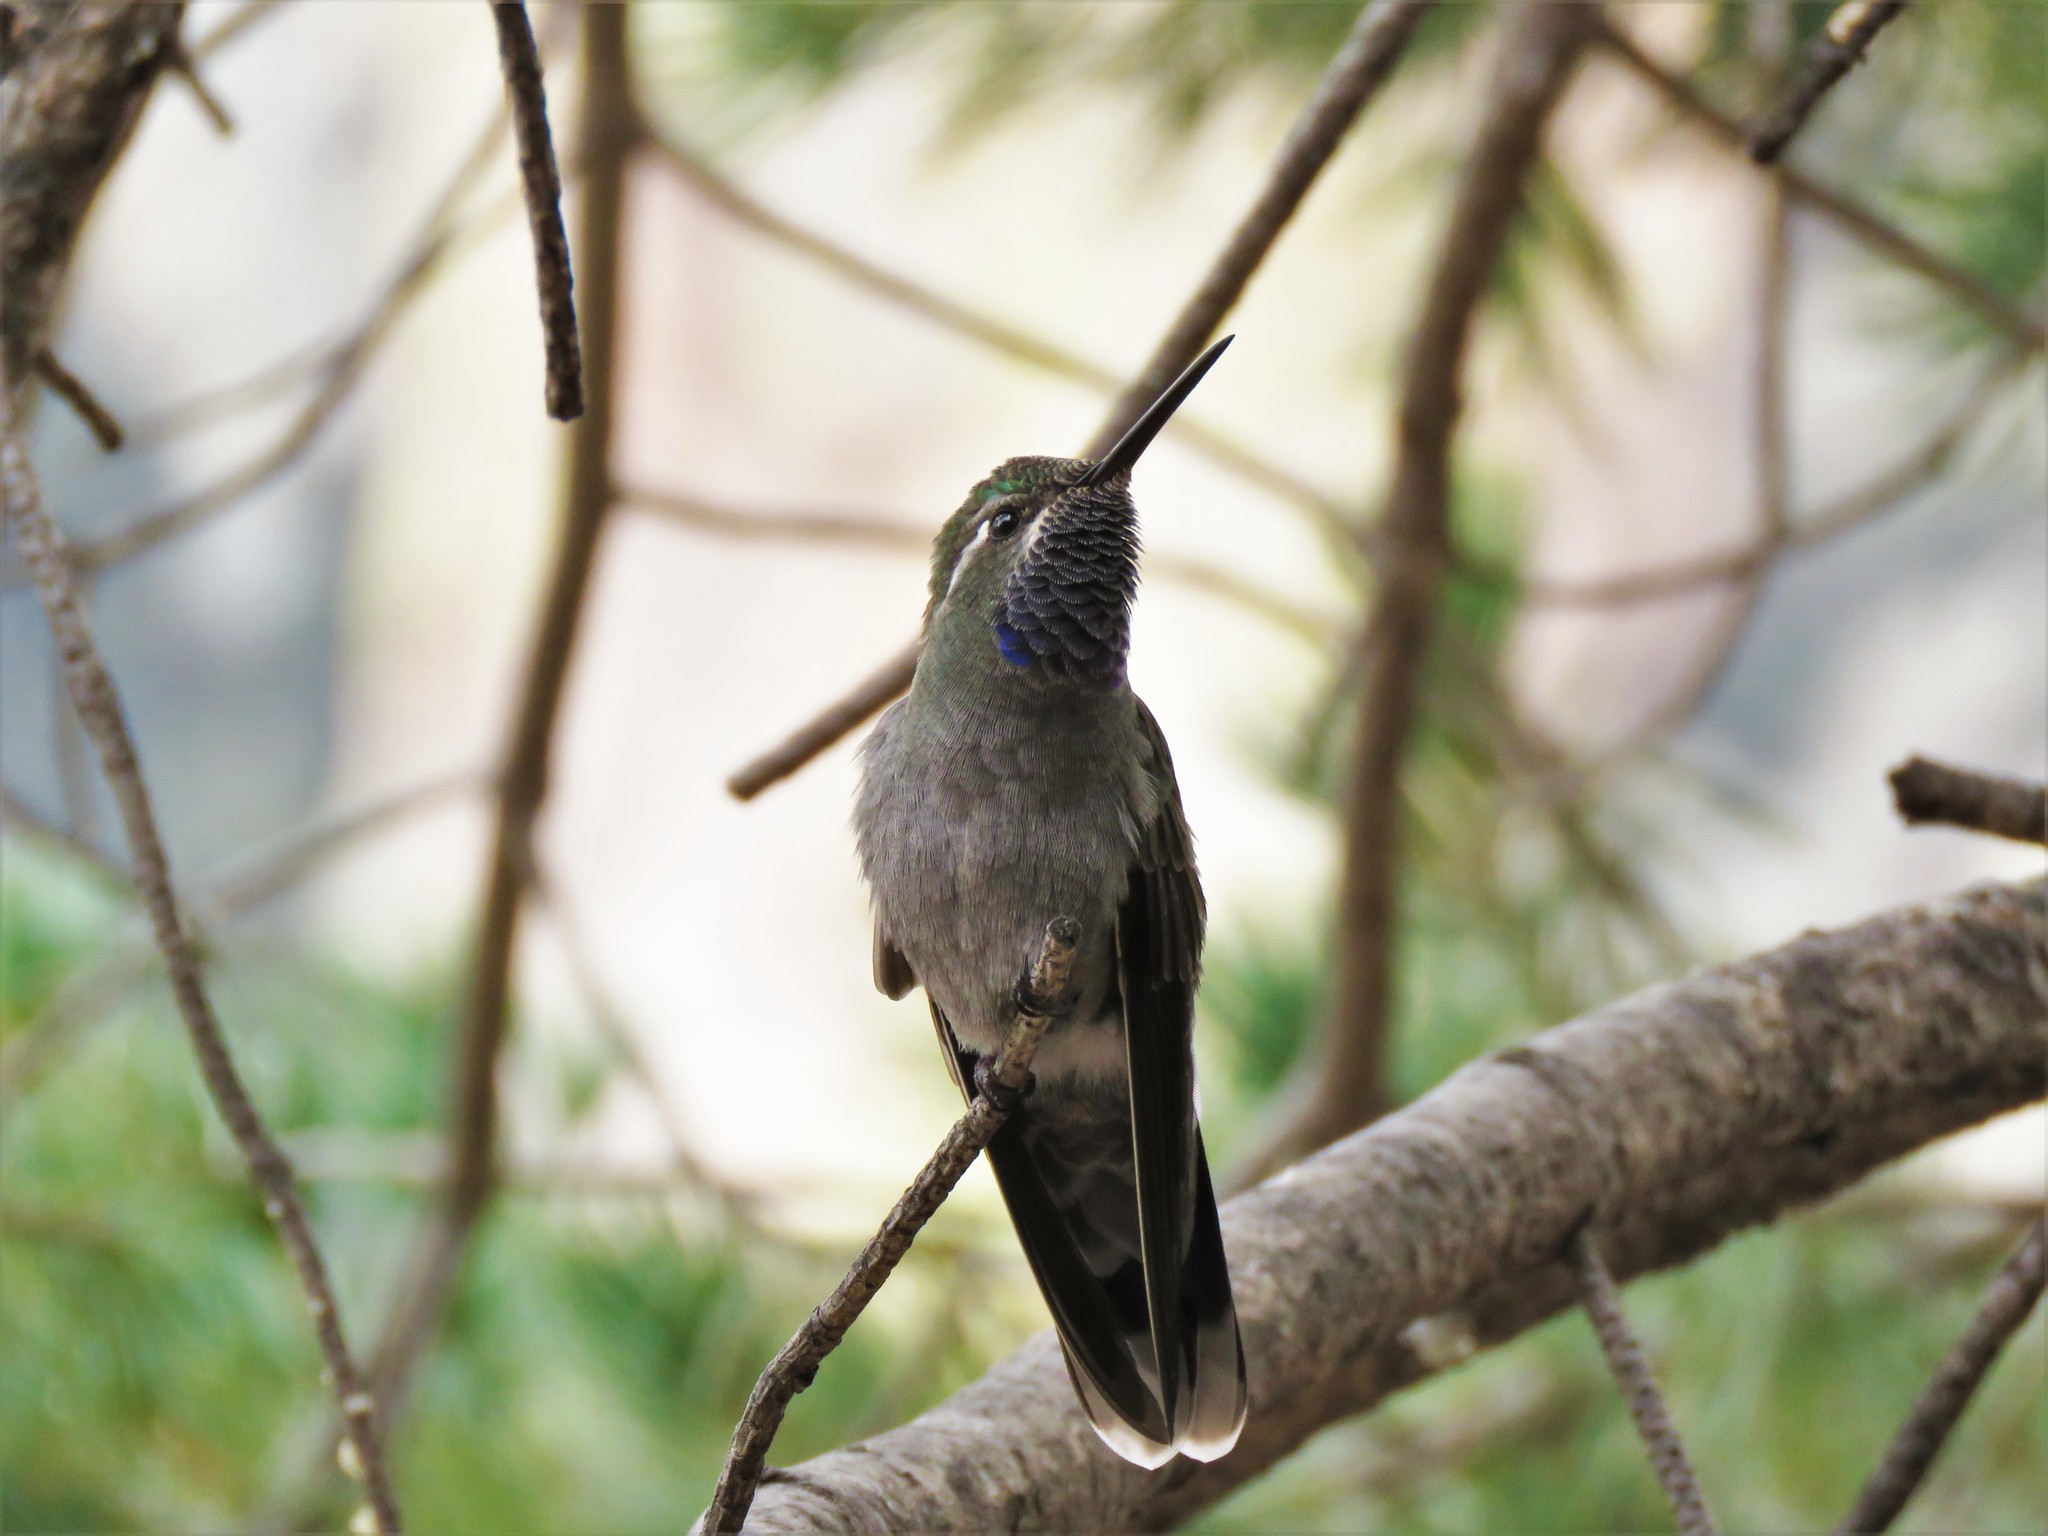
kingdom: Animalia
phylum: Chordata
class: Aves
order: Apodiformes
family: Trochilidae
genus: Lampornis
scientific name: Lampornis clemenciae
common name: Blue-throated mountaingem
